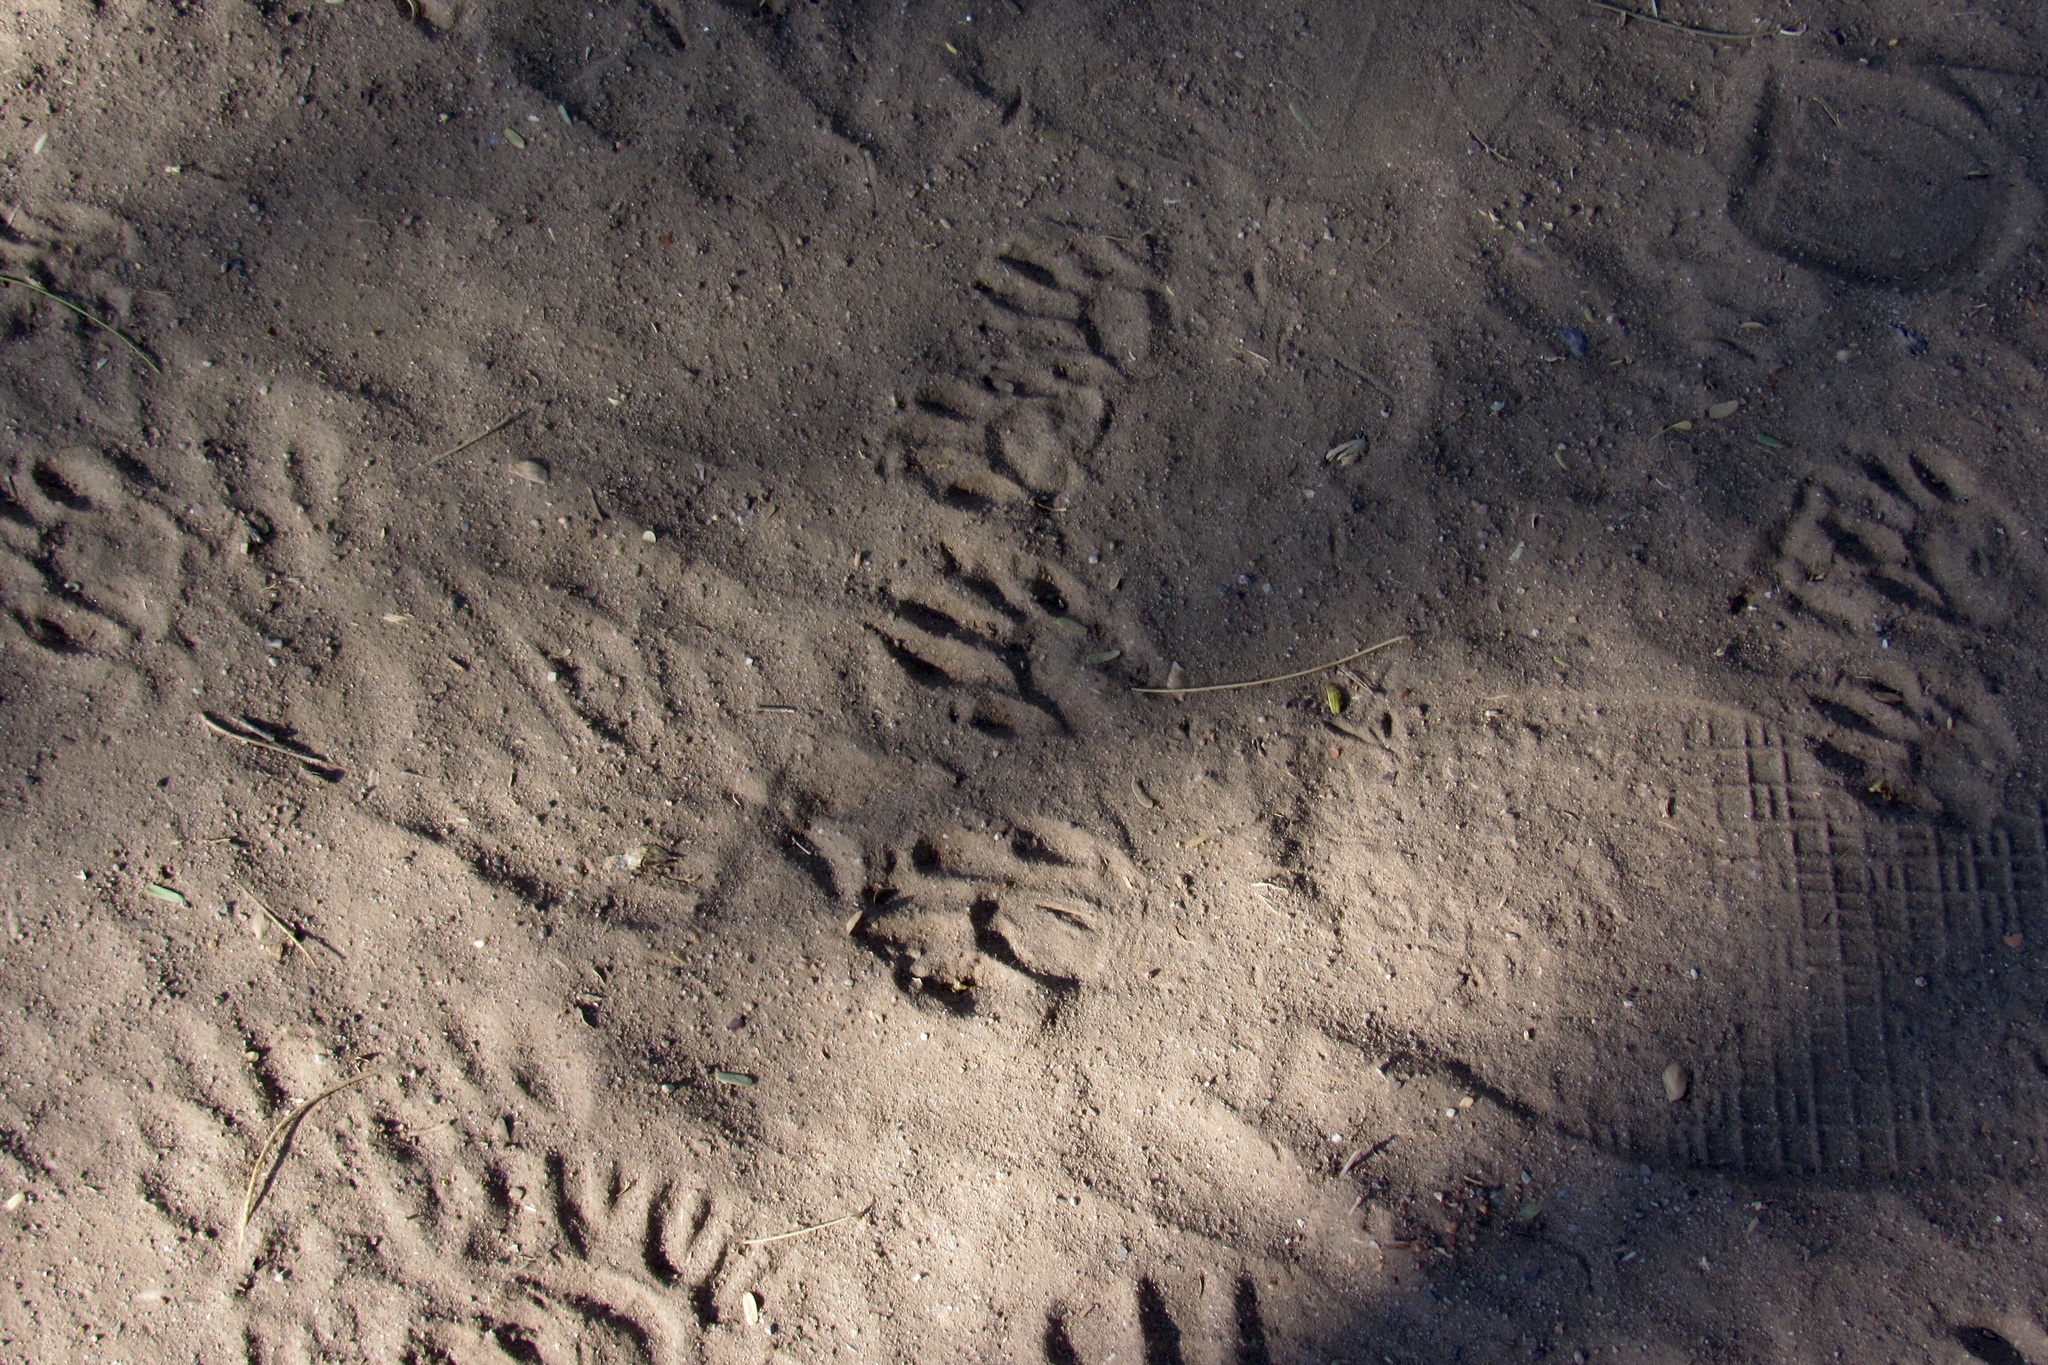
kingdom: Animalia
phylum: Chordata
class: Mammalia
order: Carnivora
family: Procyonidae
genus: Procyon
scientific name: Procyon lotor
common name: Raccoon
